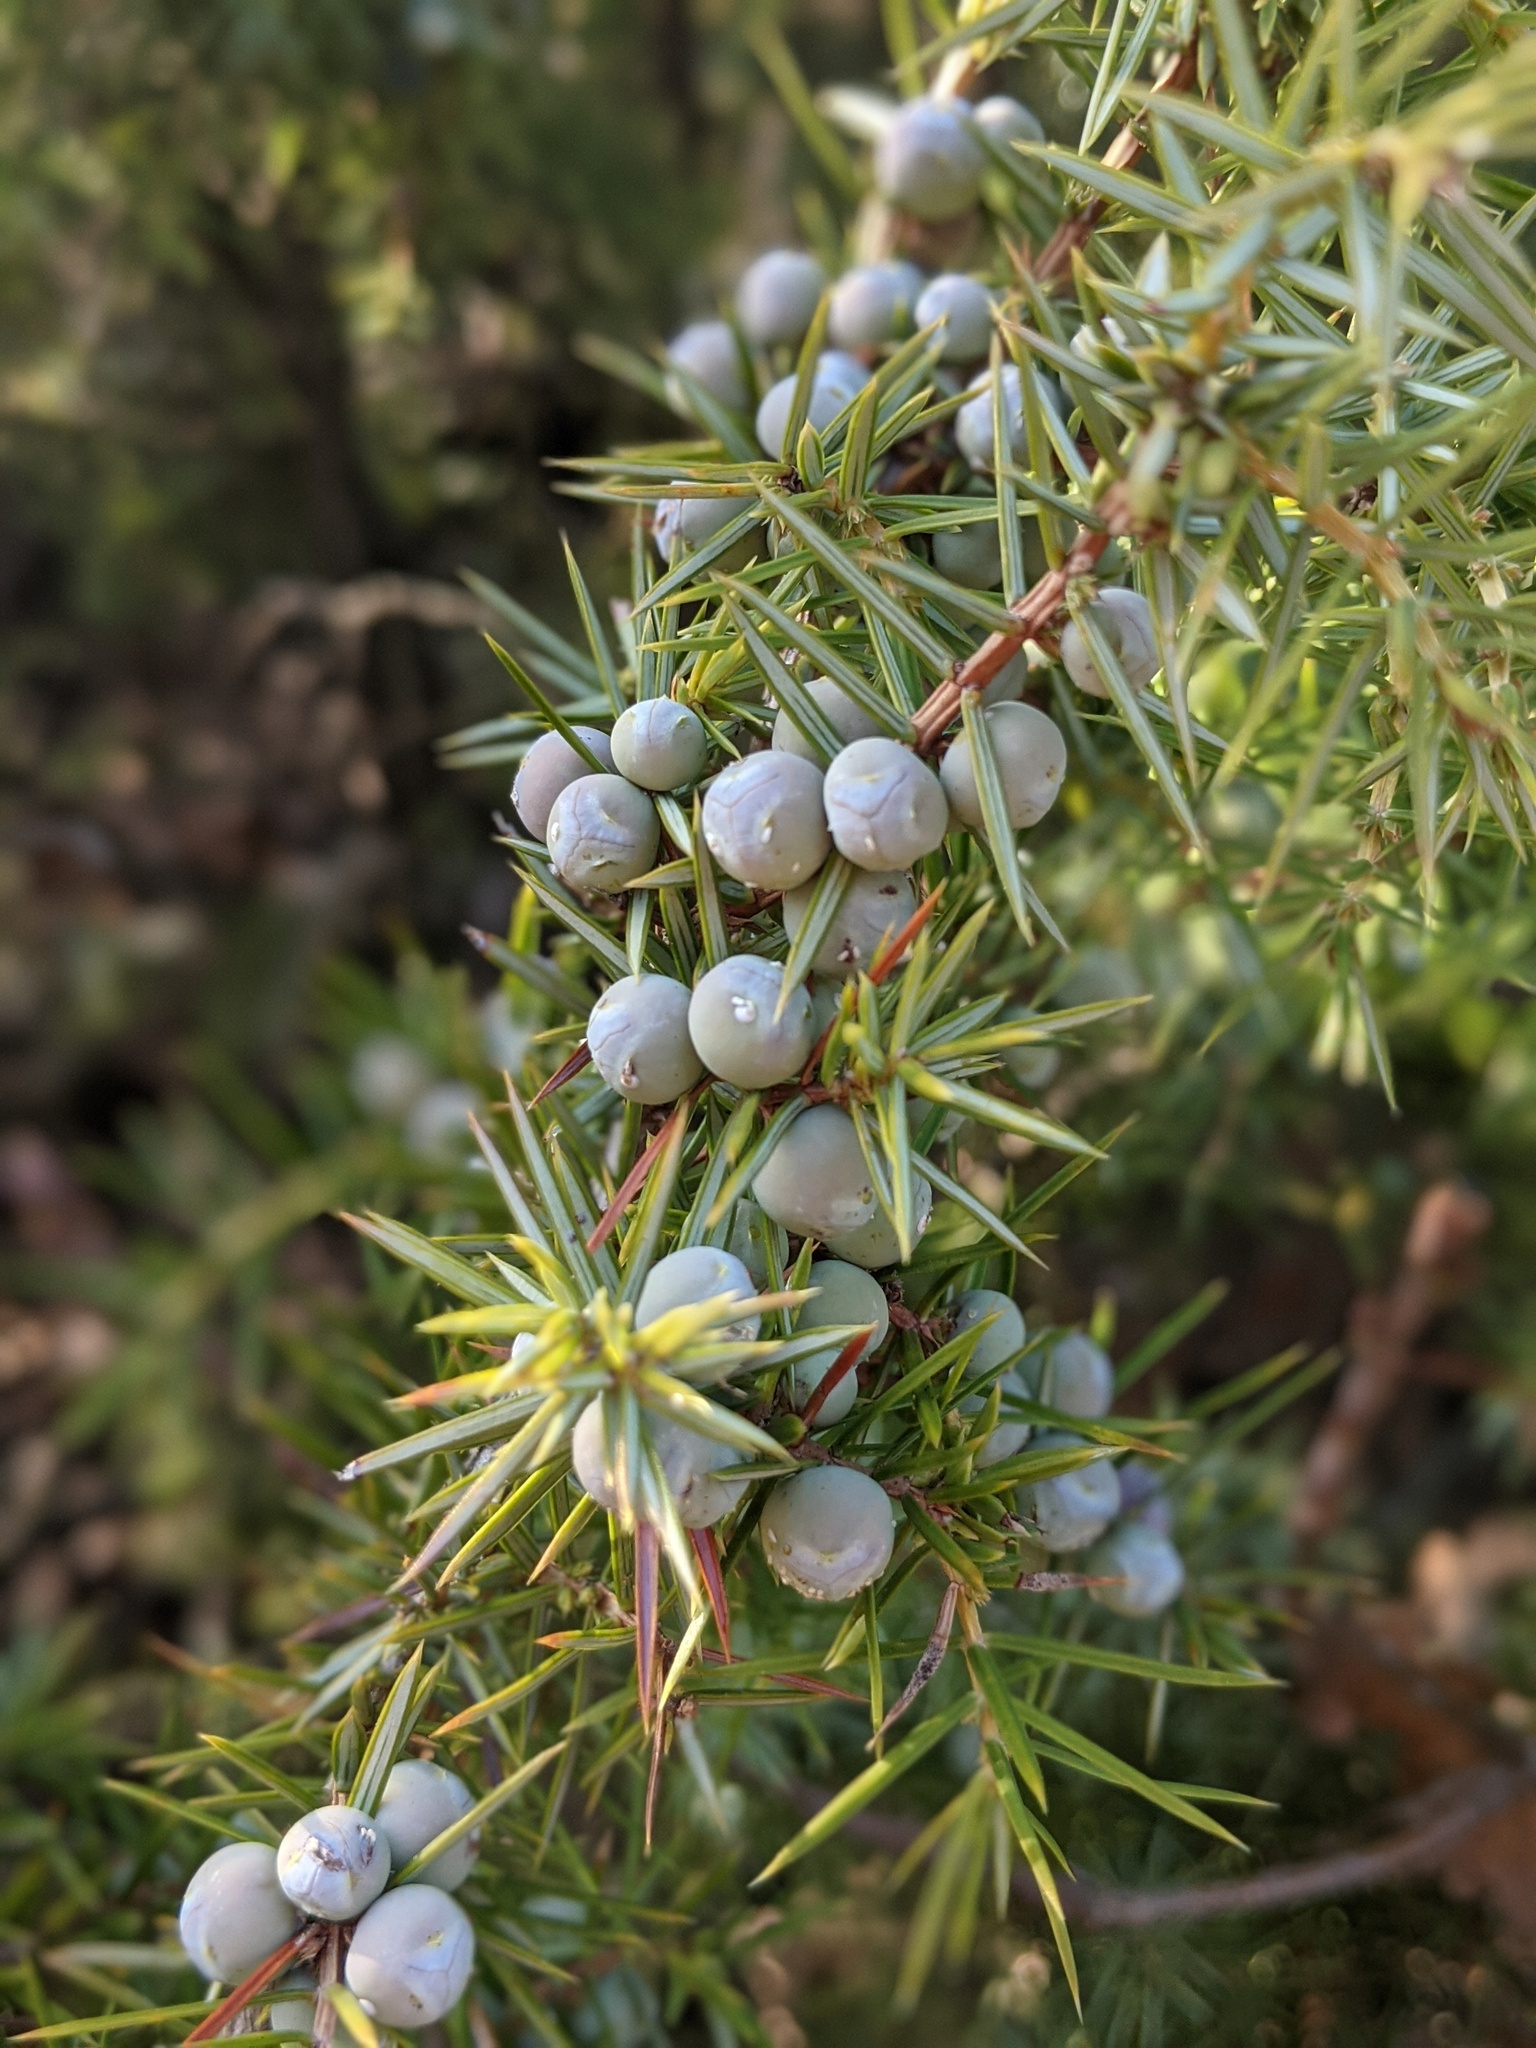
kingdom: Plantae
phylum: Tracheophyta
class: Pinopsida
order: Pinales
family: Cupressaceae
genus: Juniperus
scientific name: Juniperus communis
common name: Common juniper
